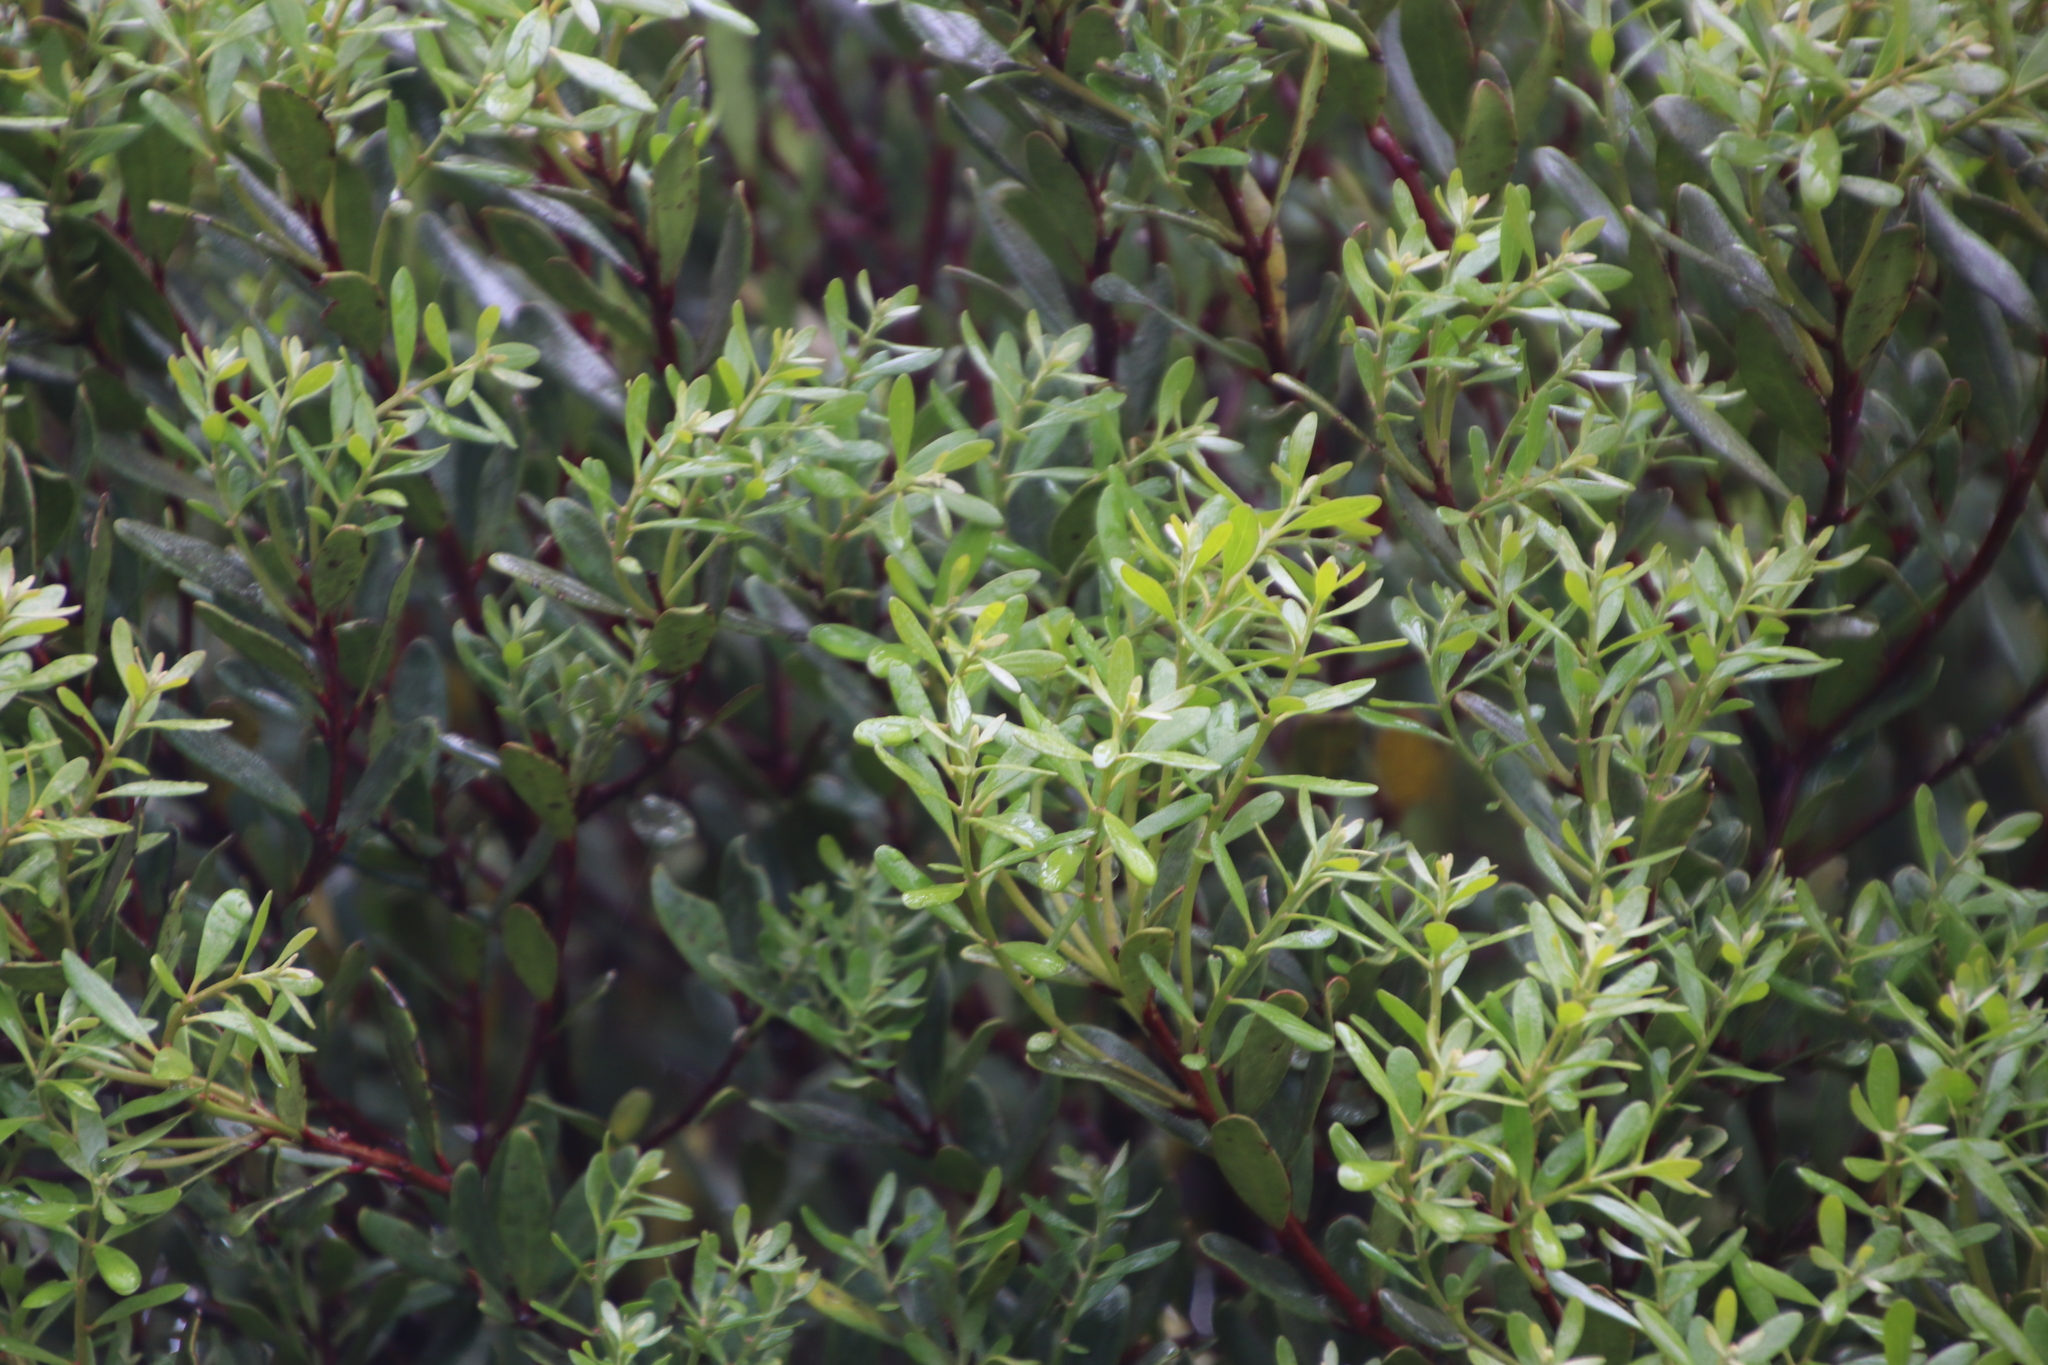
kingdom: Plantae
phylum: Tracheophyta
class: Magnoliopsida
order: Ericales
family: Ebenaceae
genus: Euclea
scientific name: Euclea racemosa
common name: Dune guarri
